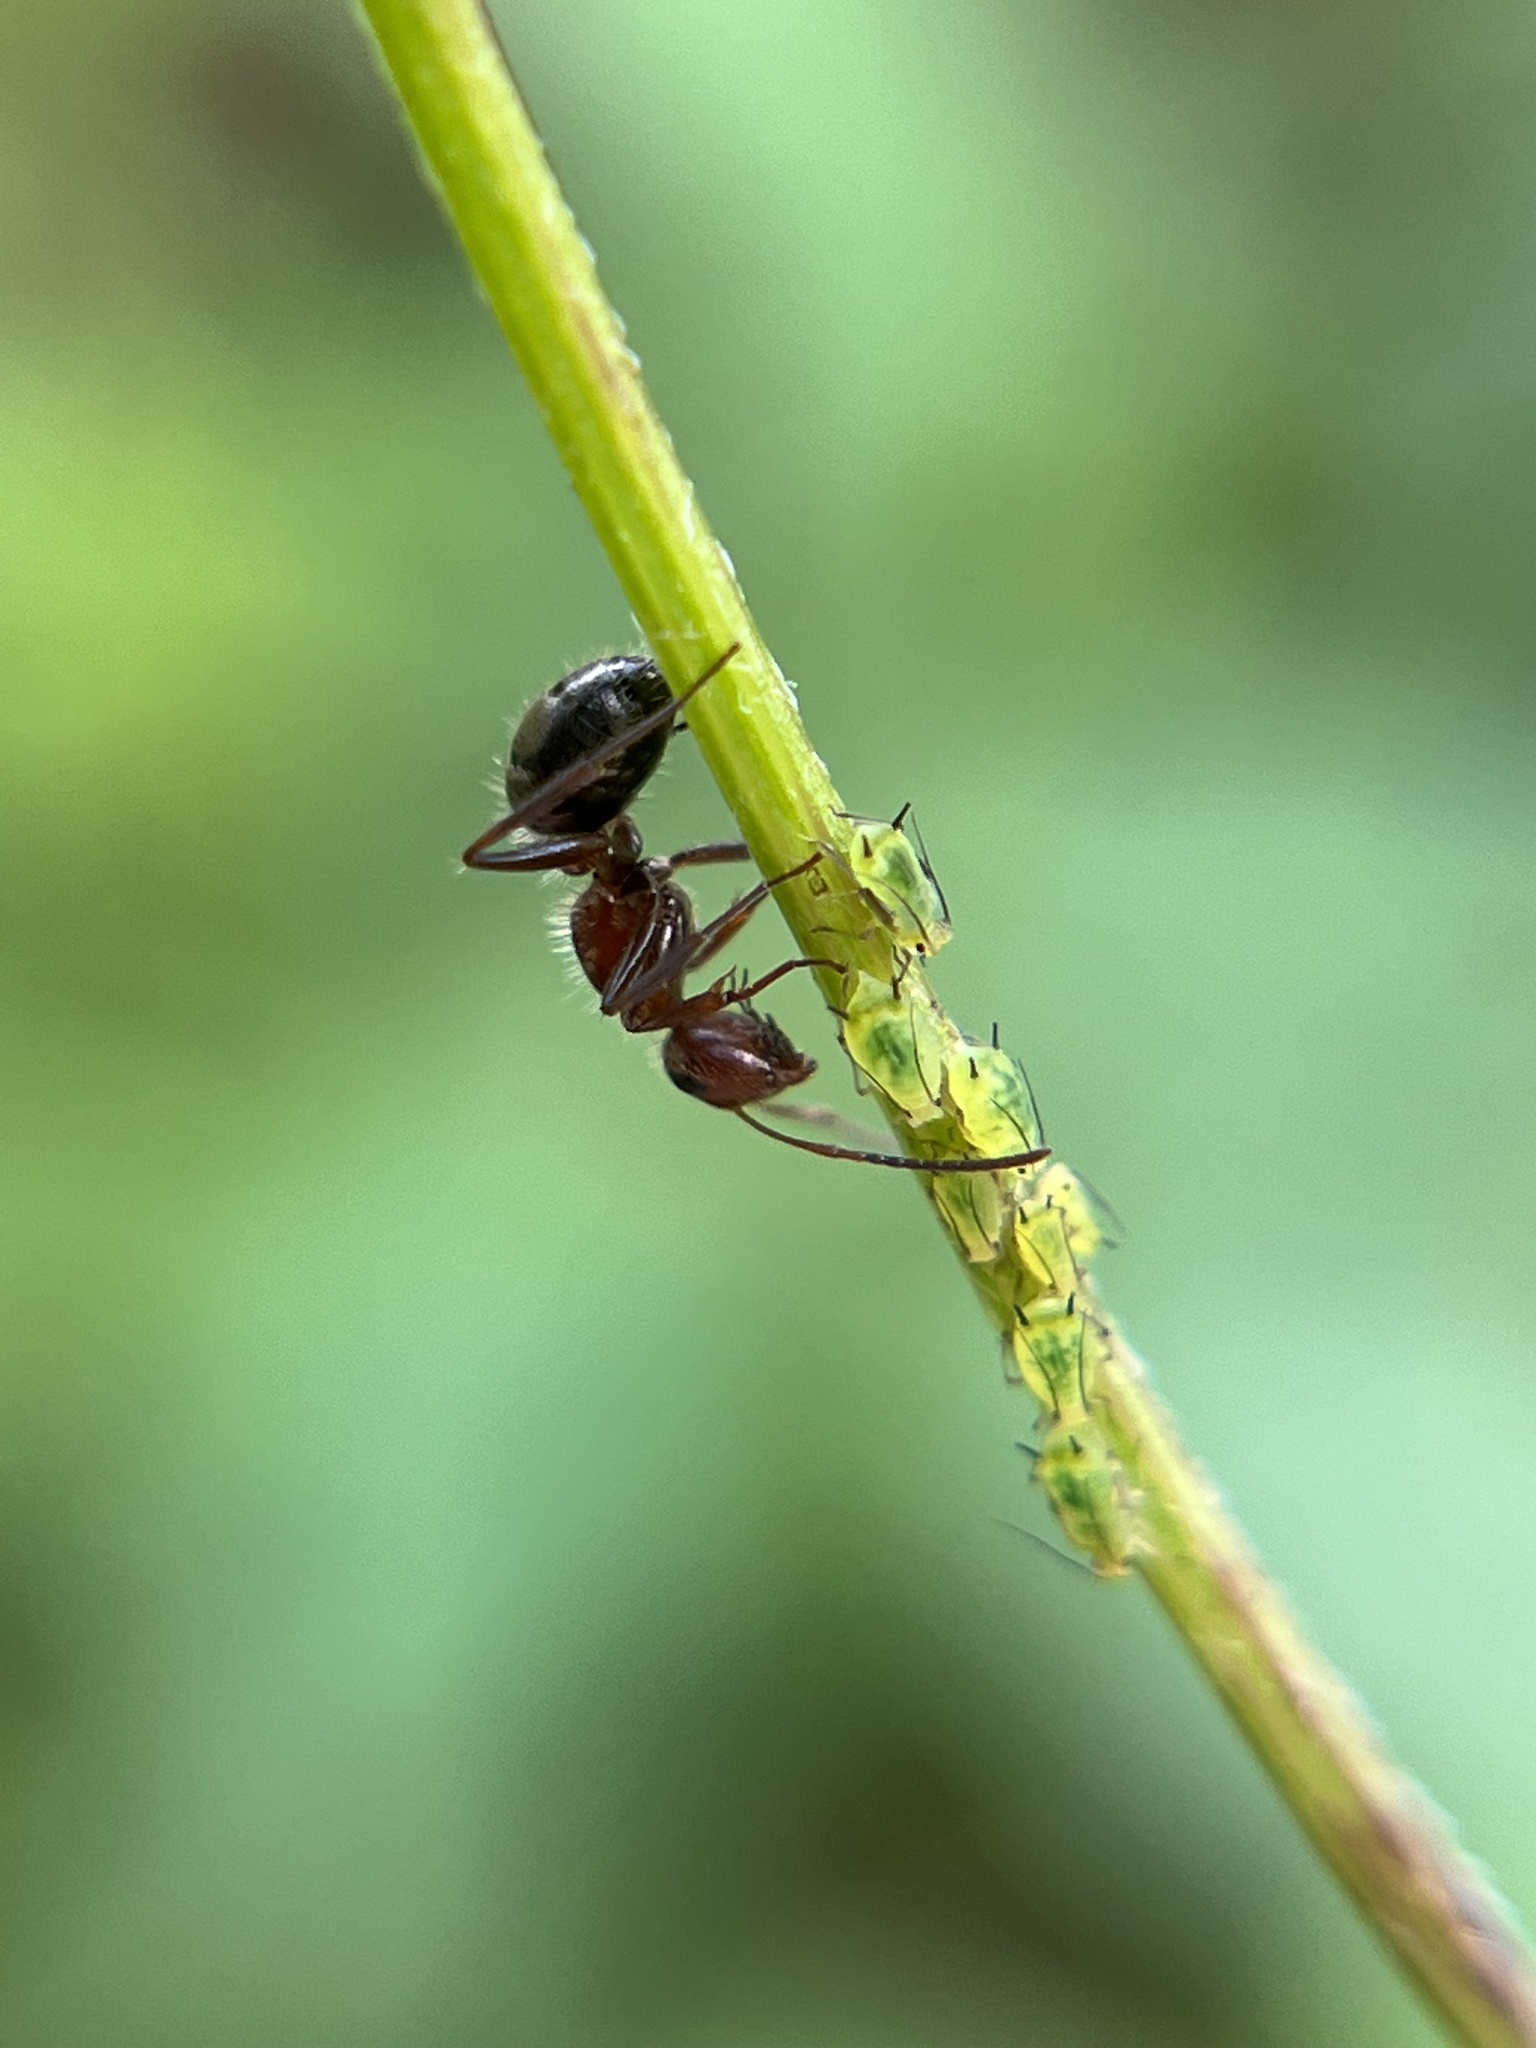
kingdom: Animalia
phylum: Arthropoda
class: Insecta
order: Hymenoptera
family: Formicidae
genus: Camponotus
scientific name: Camponotus planatus
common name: Compact carpenter ant
